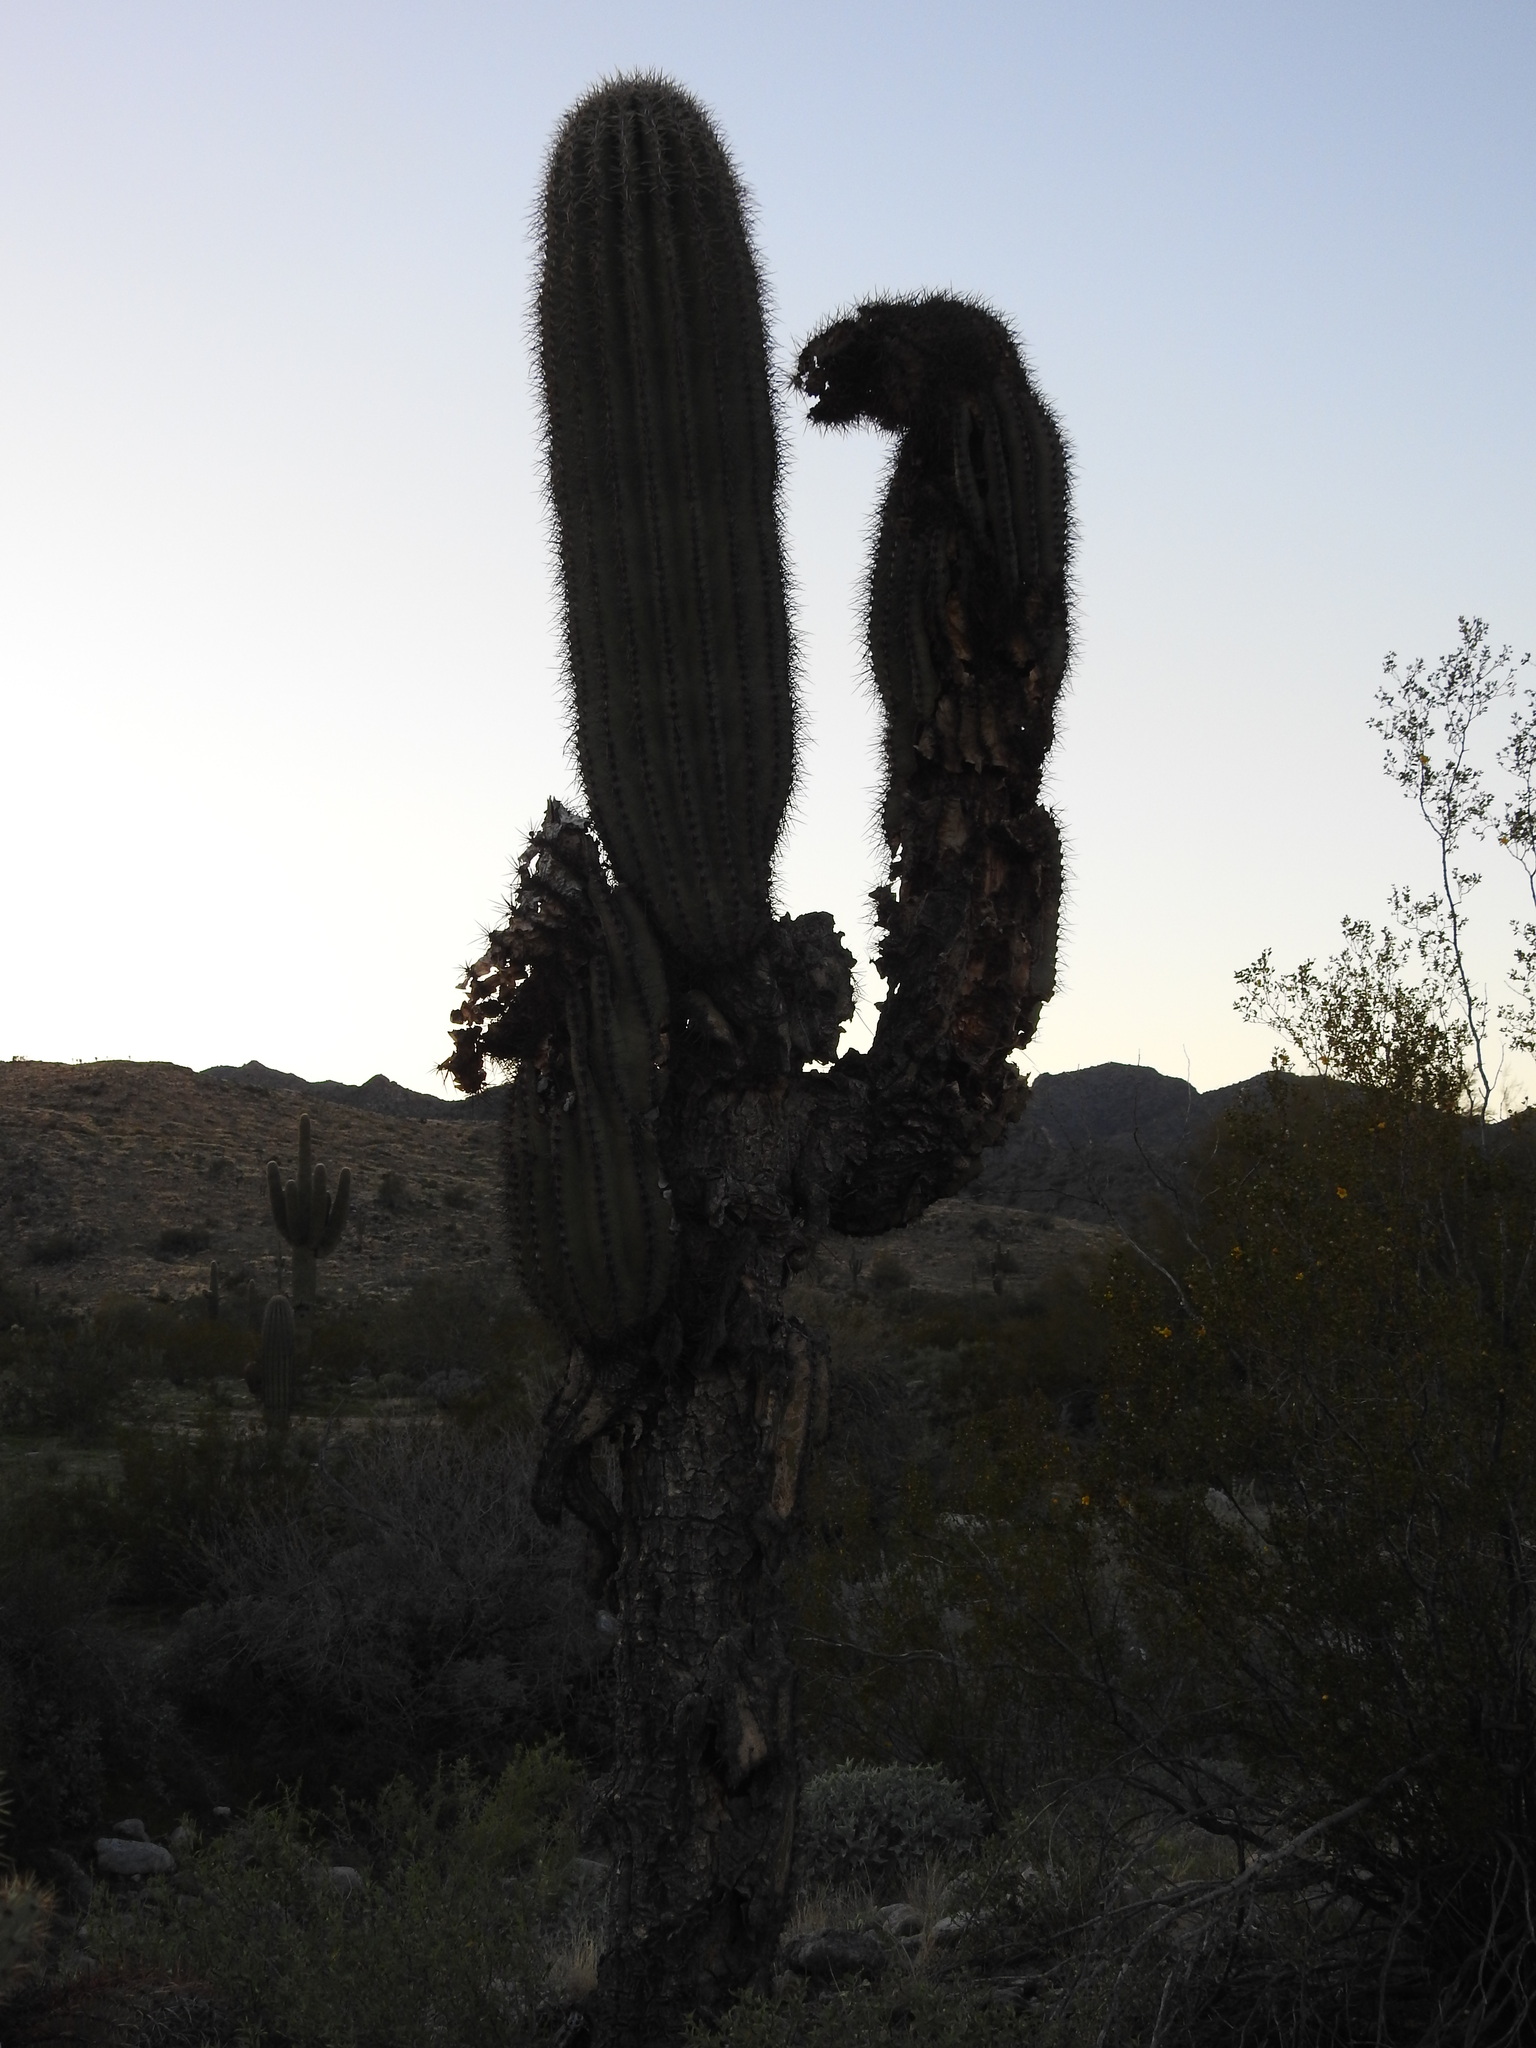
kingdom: Plantae
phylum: Tracheophyta
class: Magnoliopsida
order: Caryophyllales
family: Cactaceae
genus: Carnegiea
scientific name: Carnegiea gigantea
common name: Saguaro
